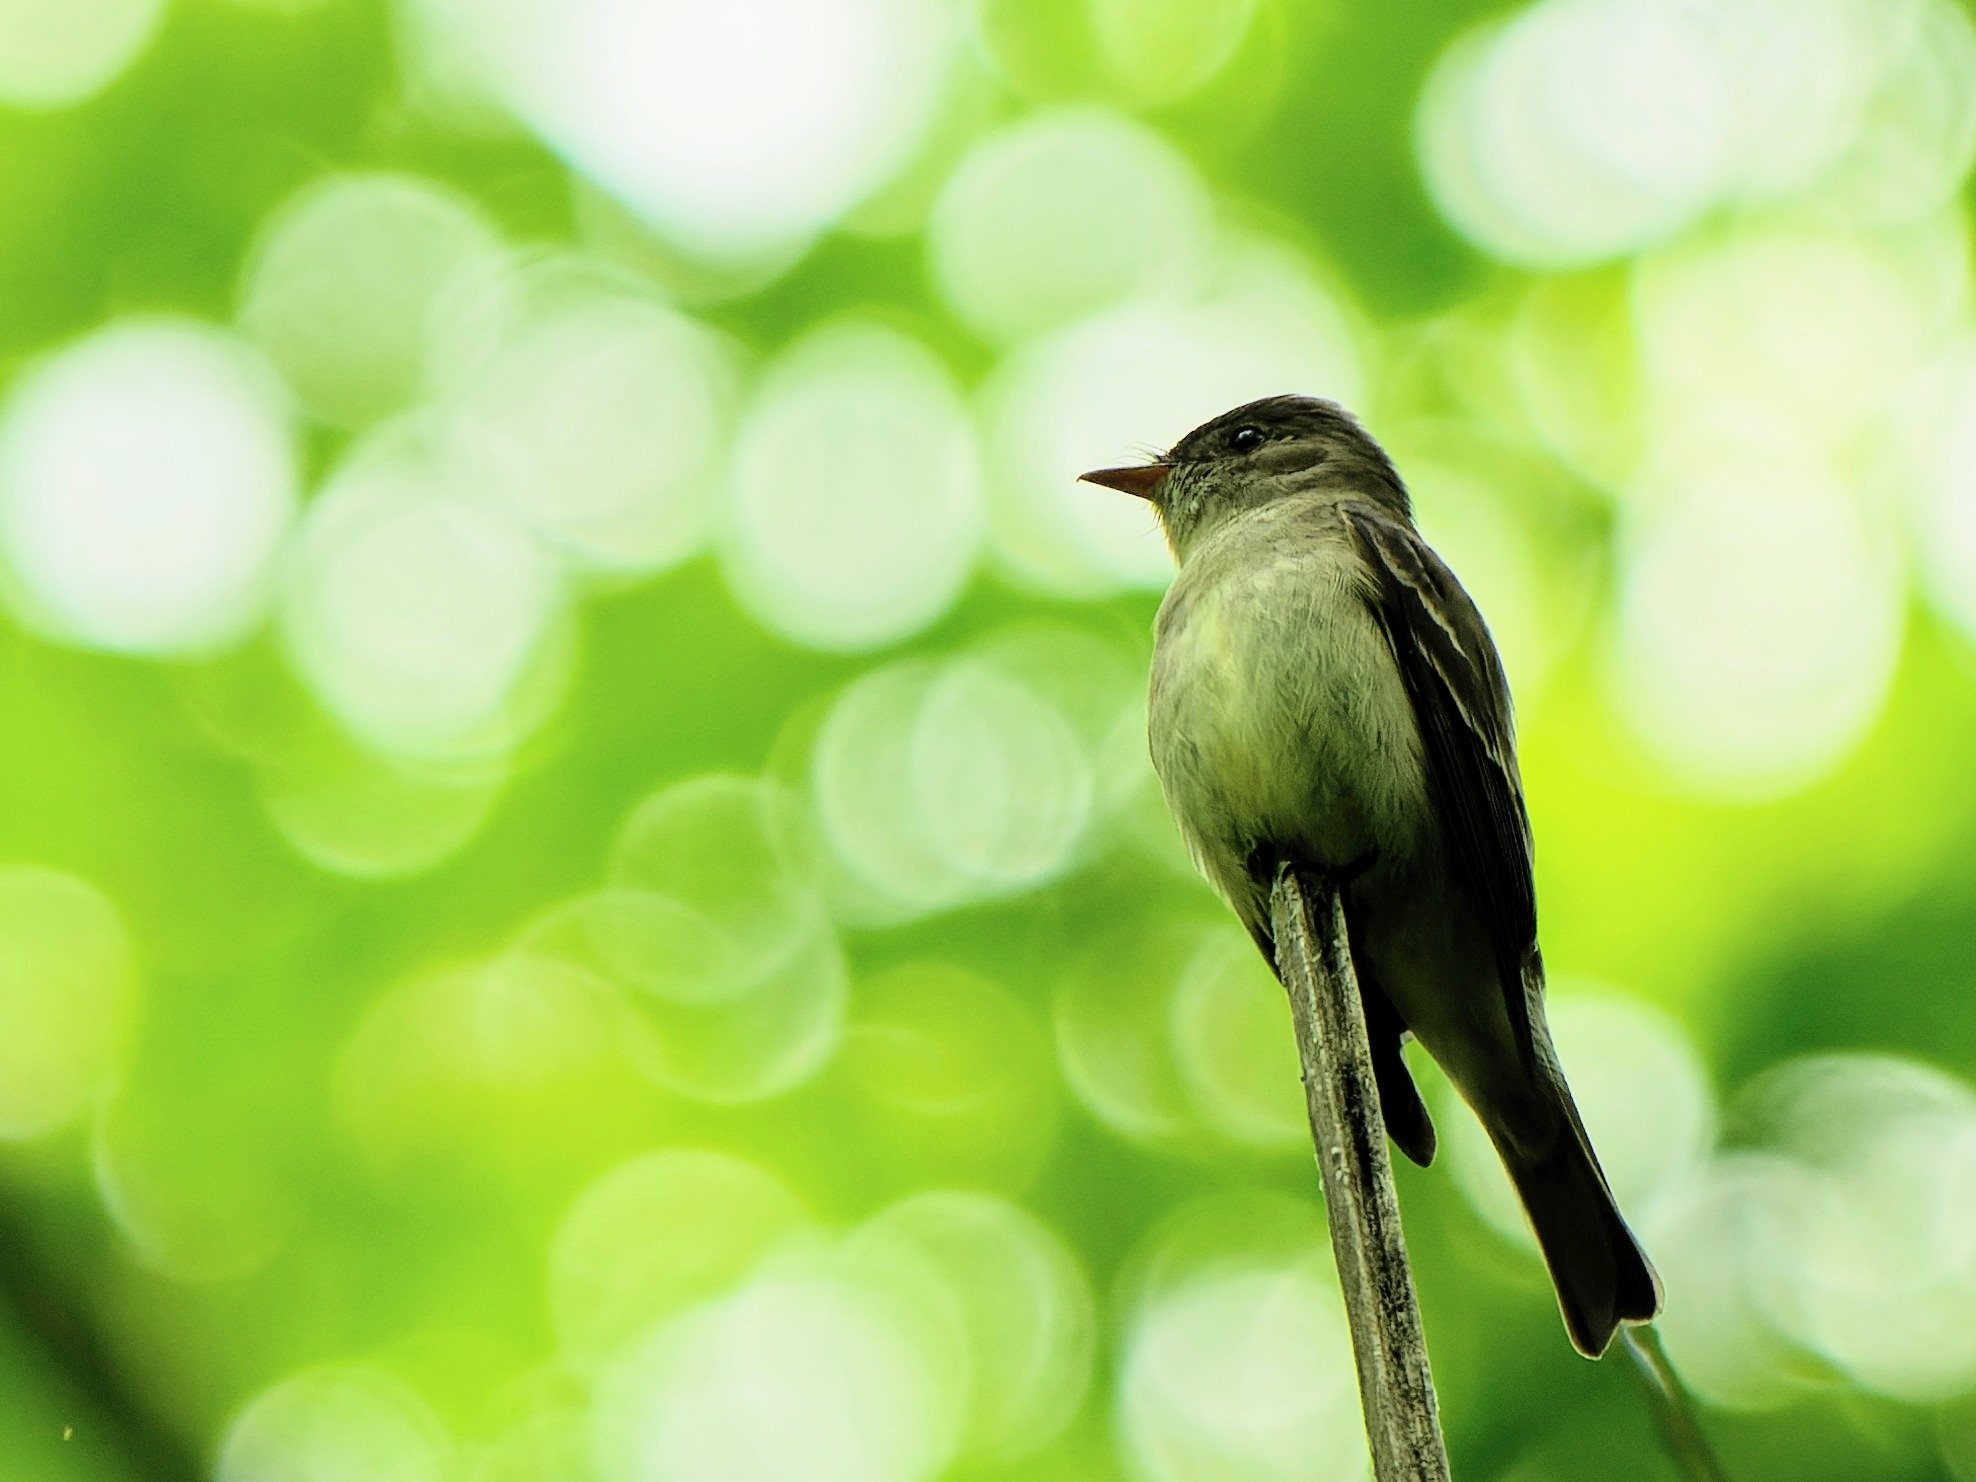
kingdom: Animalia
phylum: Chordata
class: Aves
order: Passeriformes
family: Tyrannidae
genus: Contopus
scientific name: Contopus virens
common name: Eastern wood-pewee
